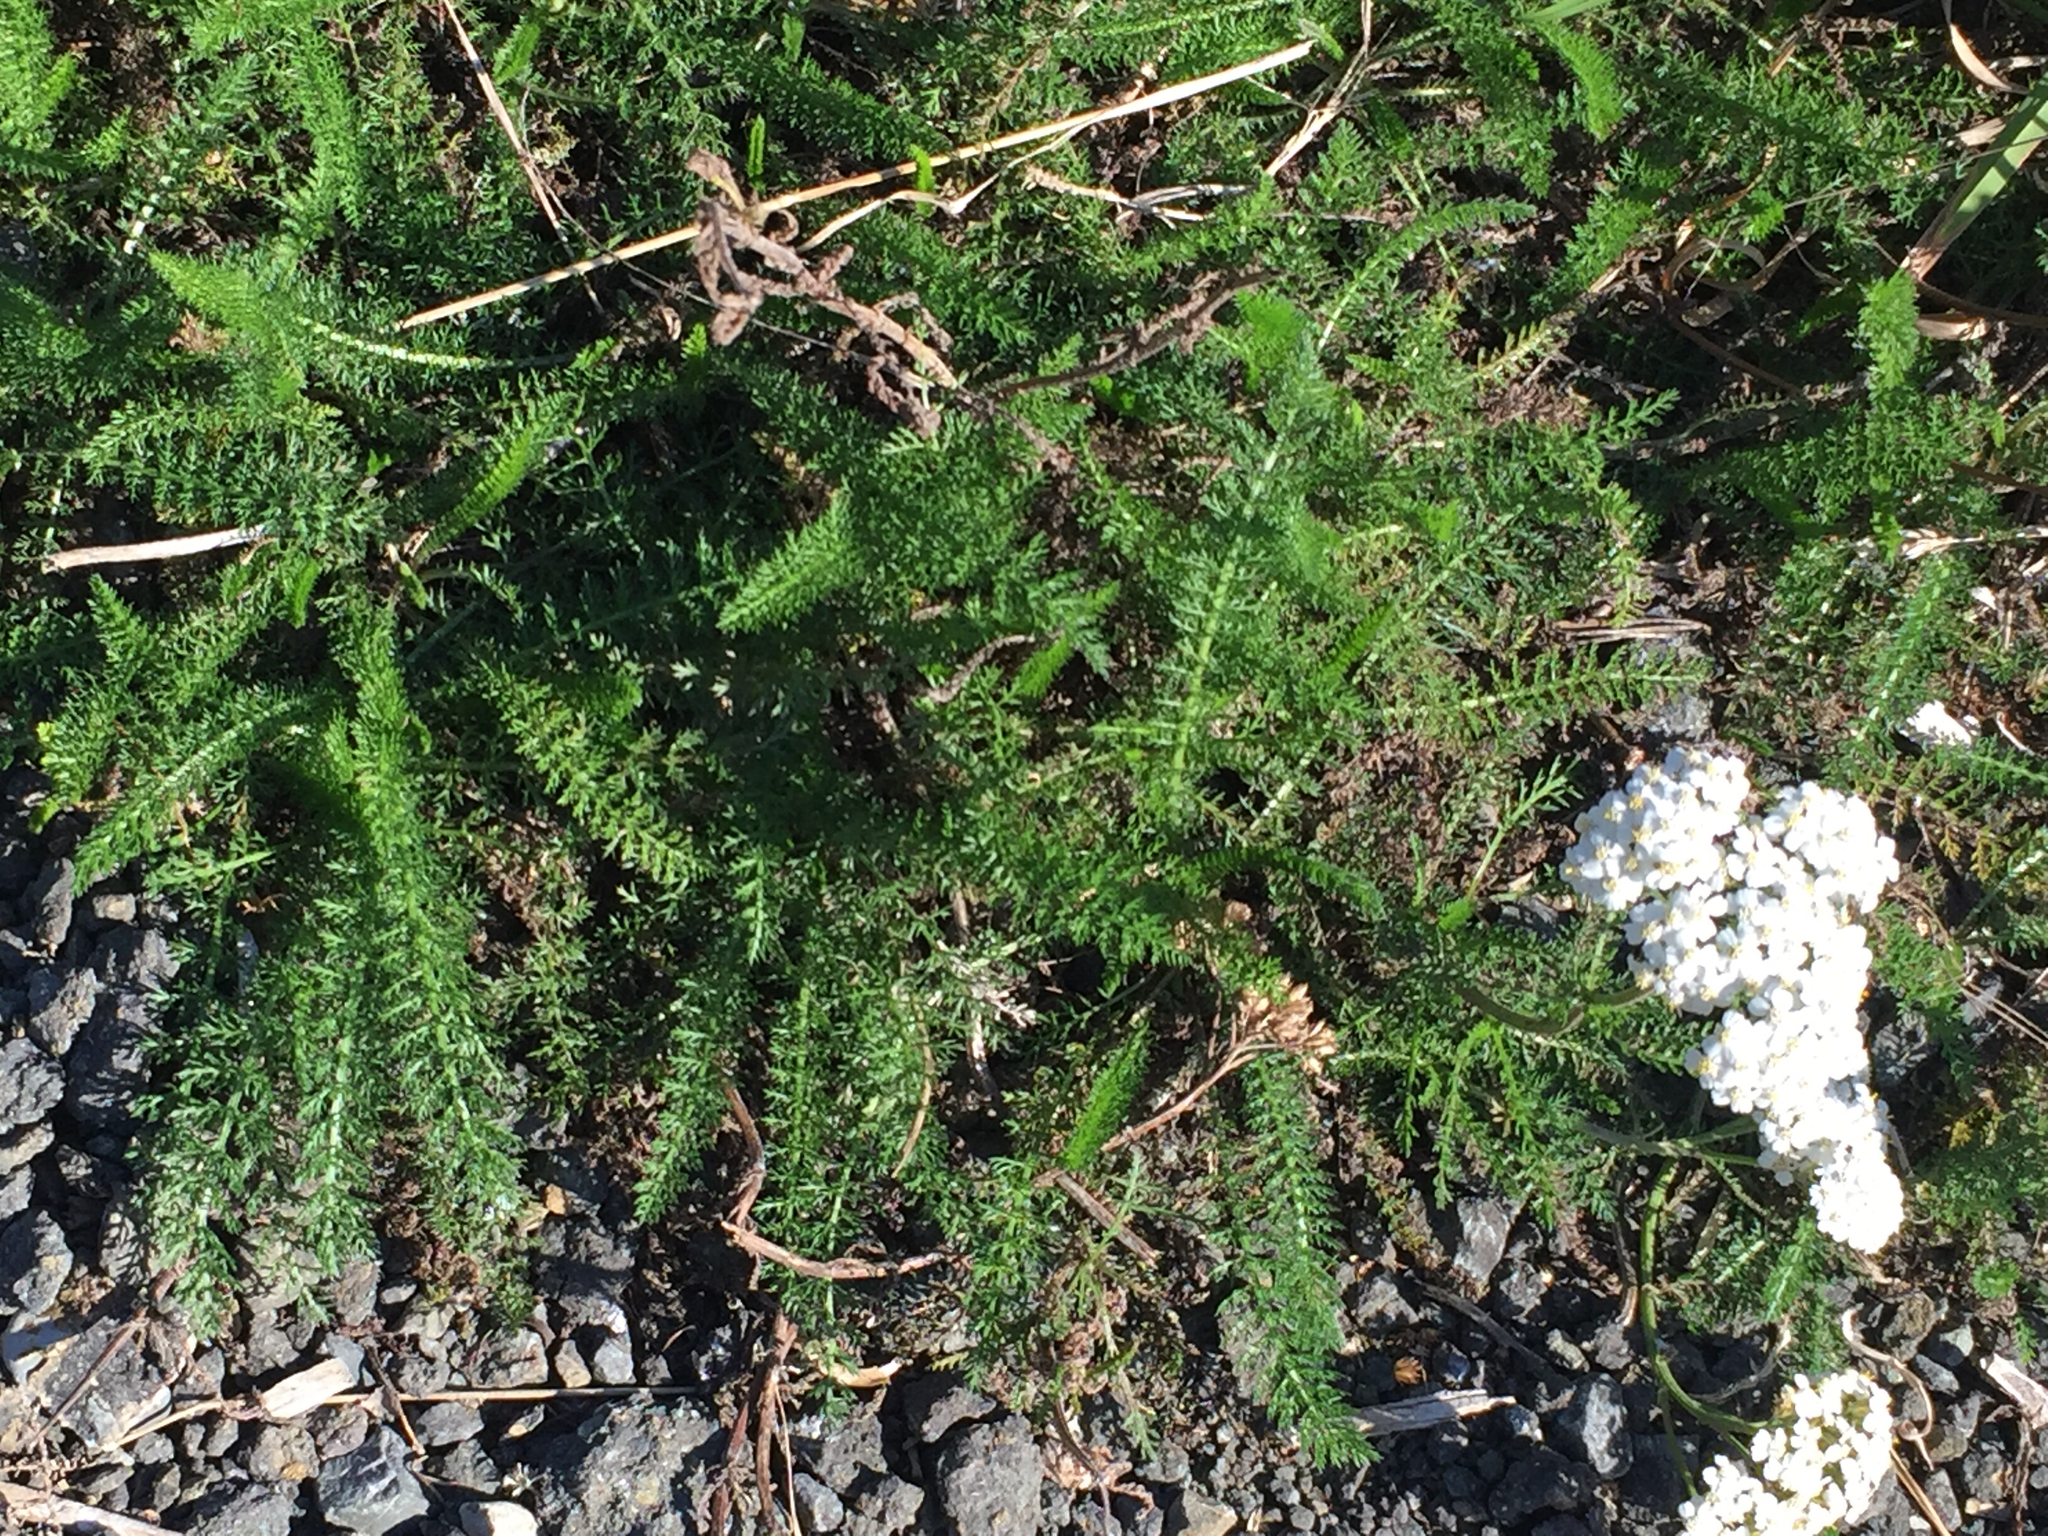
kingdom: Plantae
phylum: Tracheophyta
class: Magnoliopsida
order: Asterales
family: Asteraceae
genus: Achillea
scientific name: Achillea millefolium
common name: Yarrow
